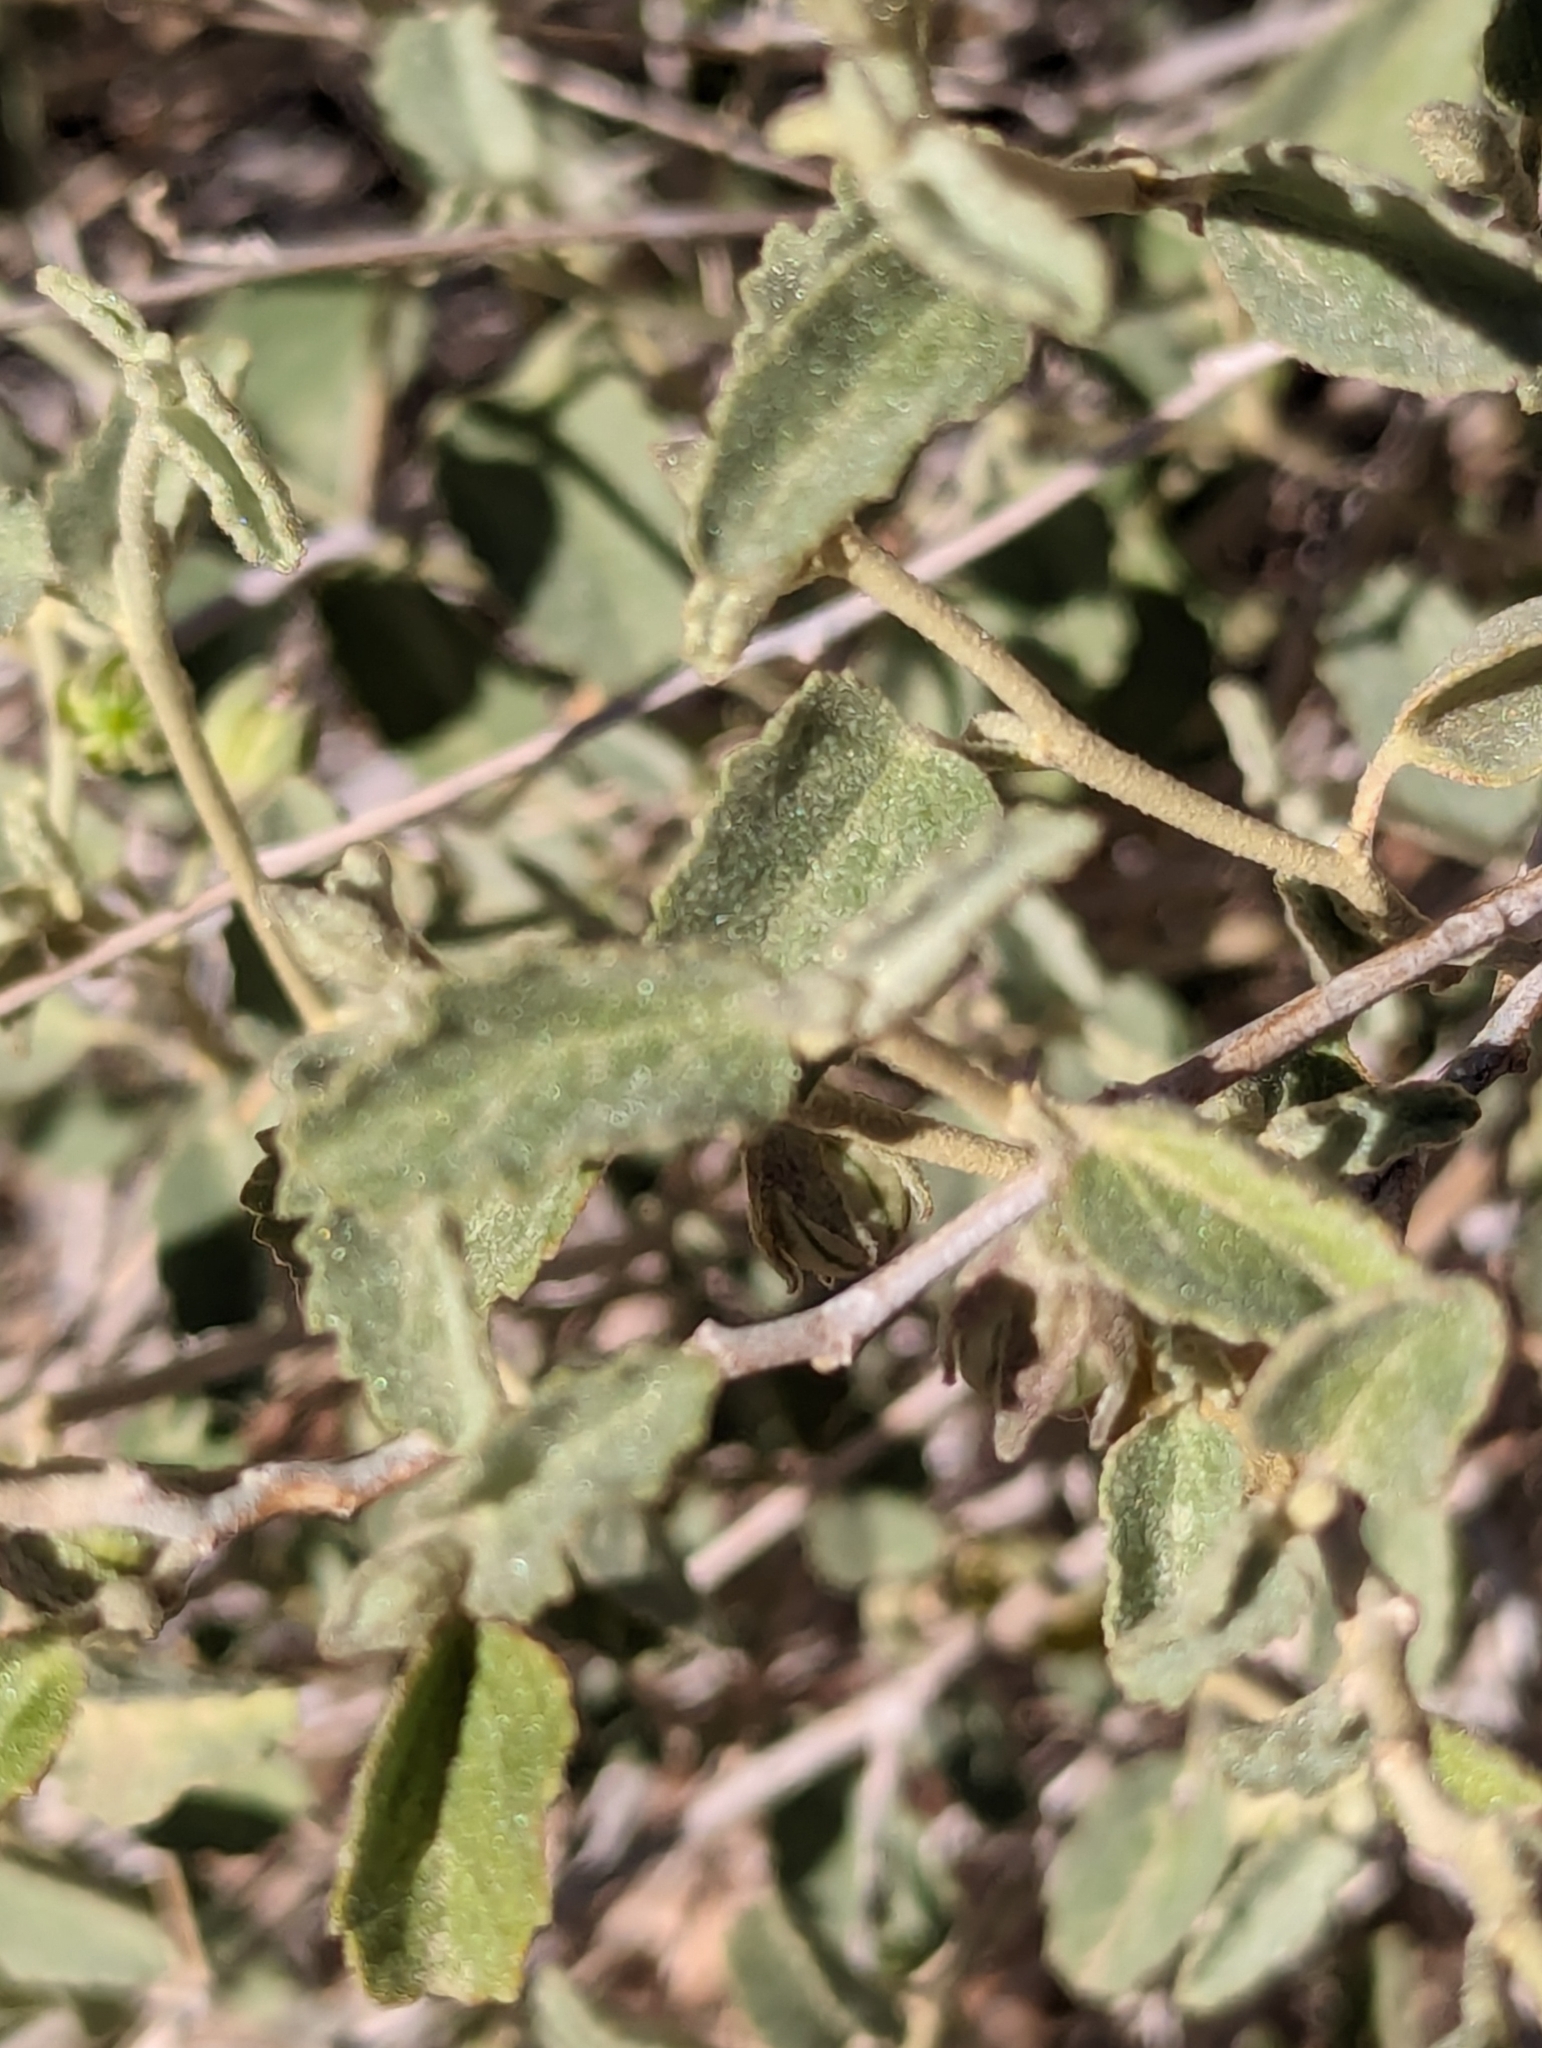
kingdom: Plantae
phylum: Tracheophyta
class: Magnoliopsida
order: Malvales
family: Malvaceae
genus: Hibiscus
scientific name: Hibiscus denudatus
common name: Paleface
